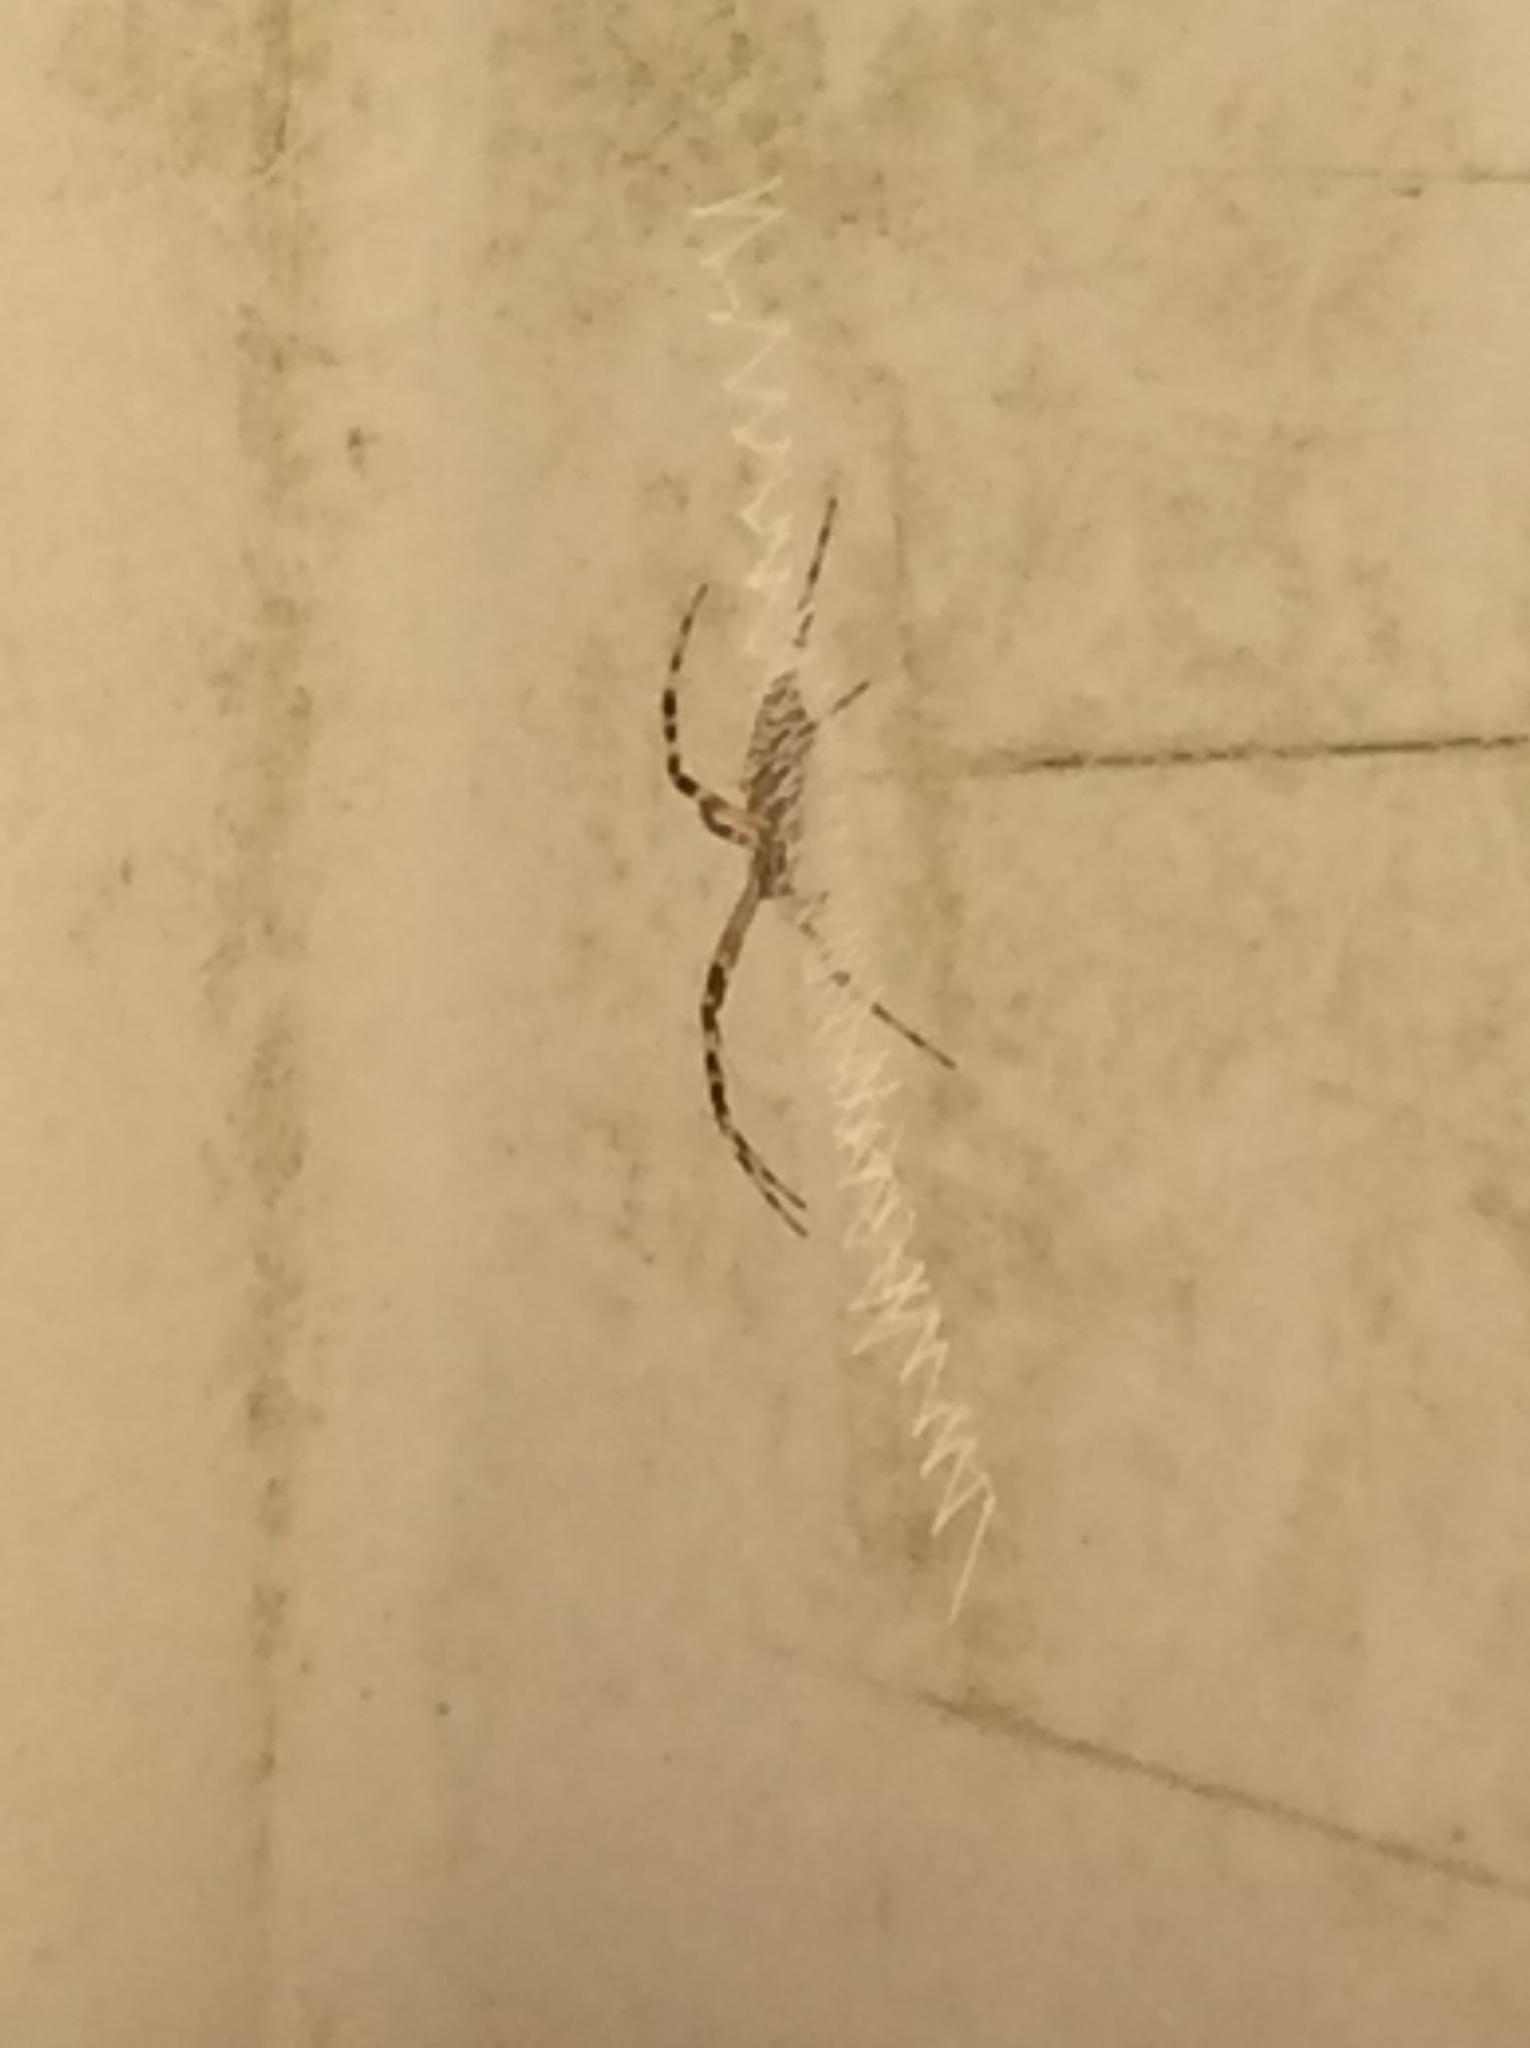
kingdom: Animalia
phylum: Arthropoda
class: Arachnida
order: Araneae
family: Araneidae
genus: Argiope
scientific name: Argiope
